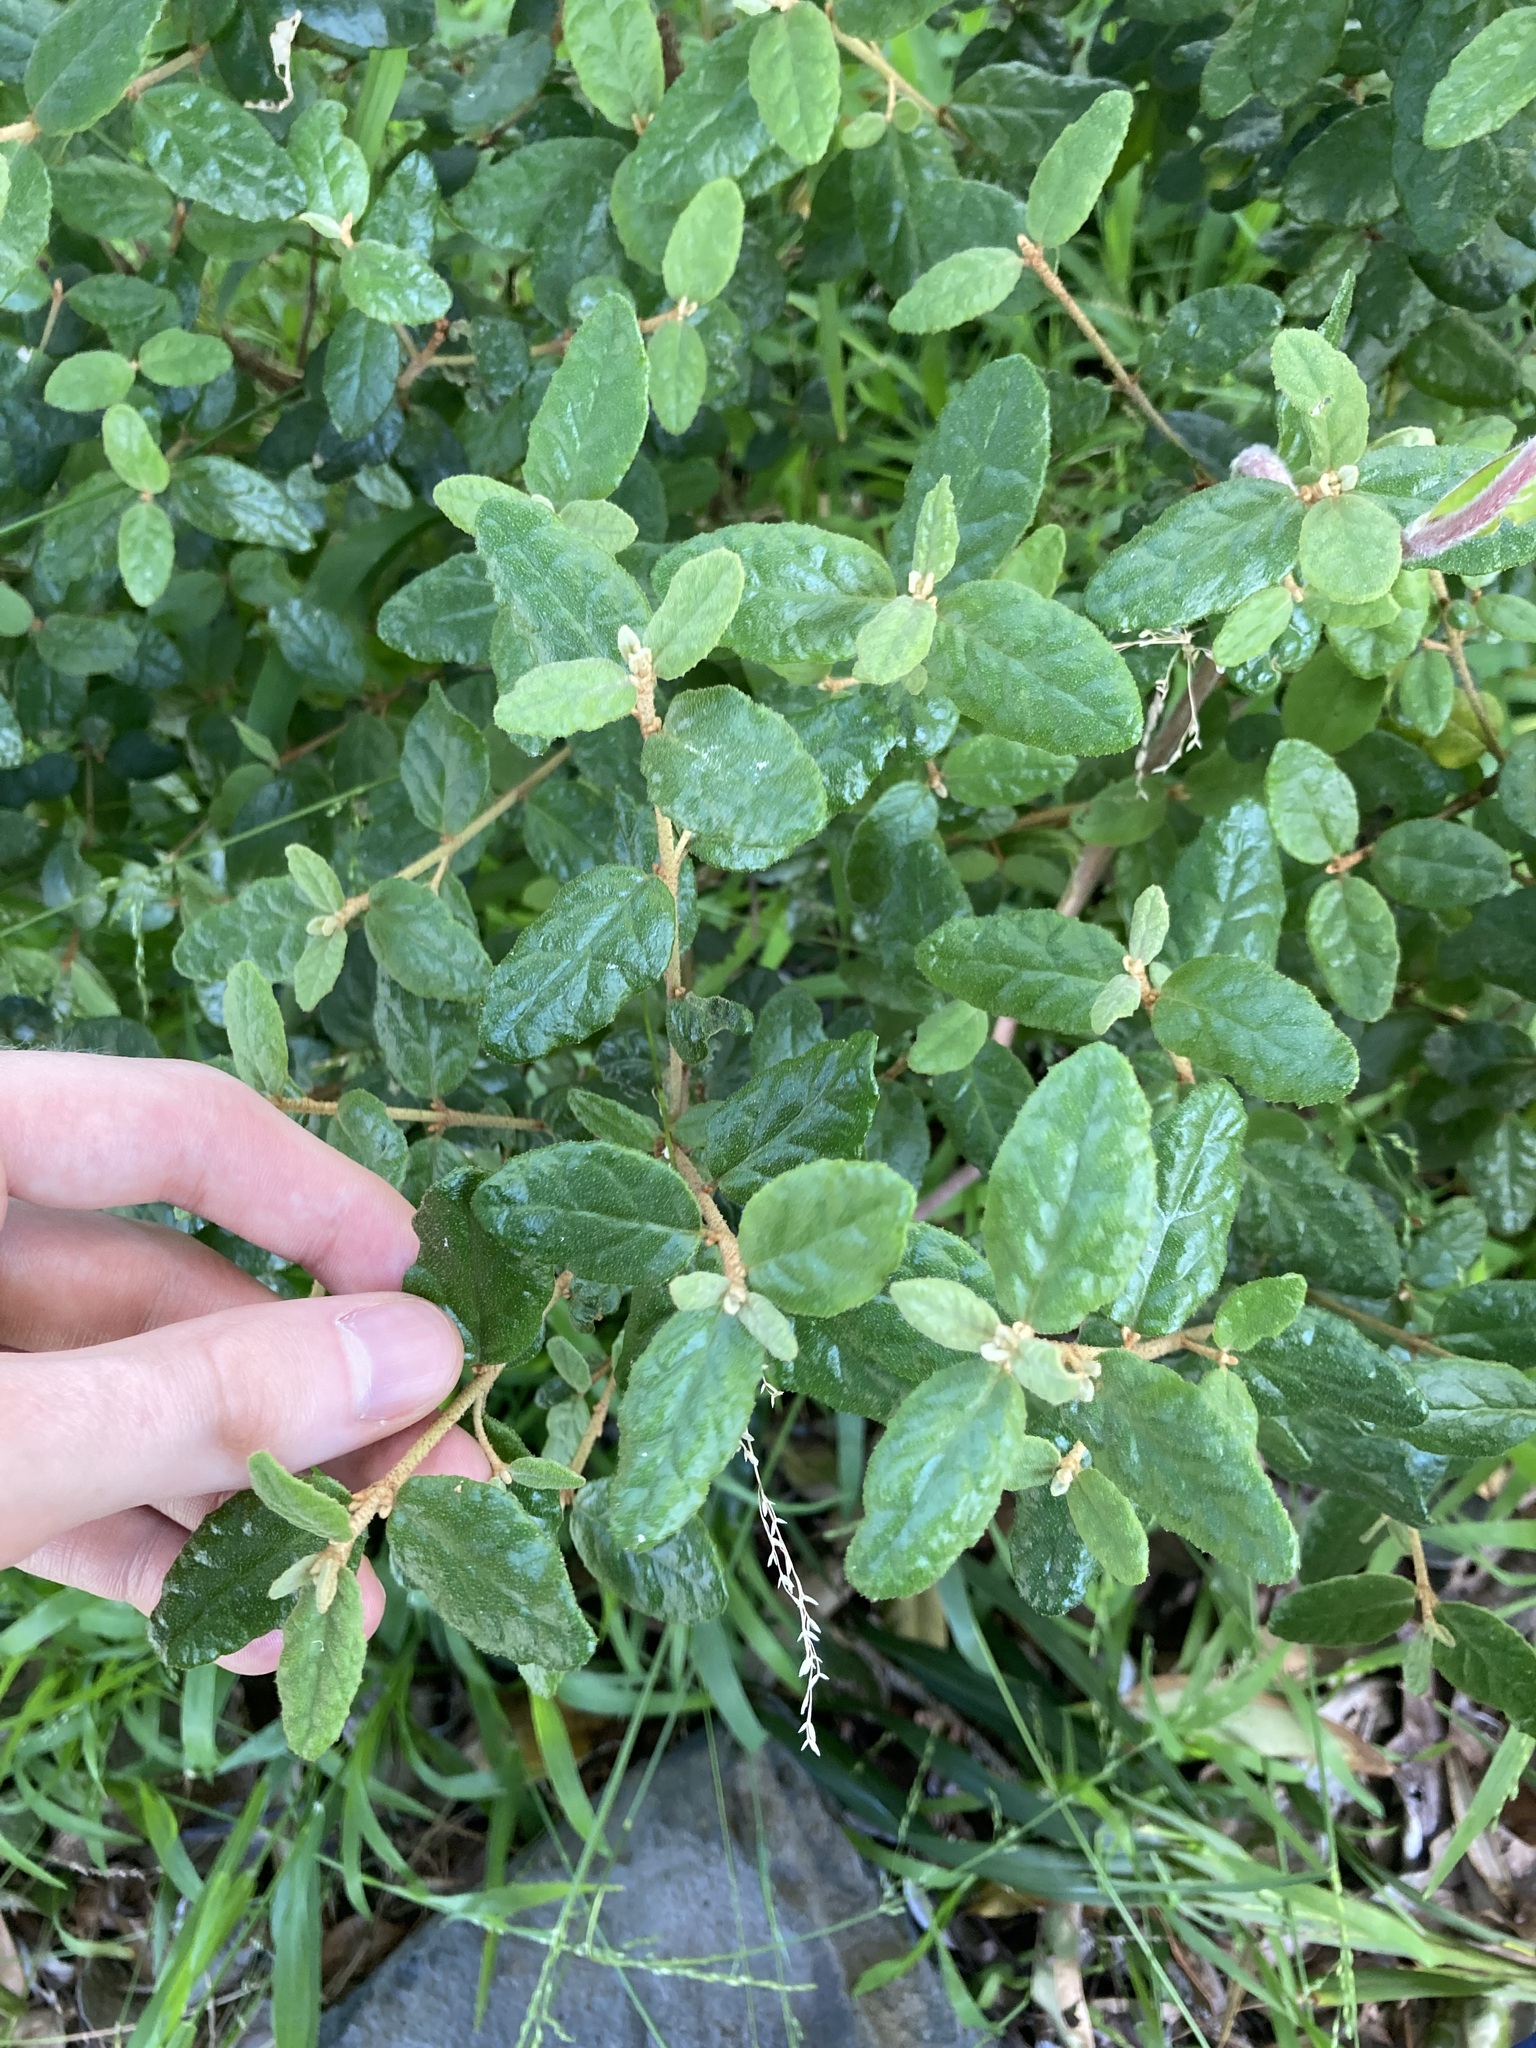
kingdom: Plantae
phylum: Tracheophyta
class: Magnoliopsida
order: Sapindales
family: Rutaceae
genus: Correa
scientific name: Correa reflexa
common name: Common correa
